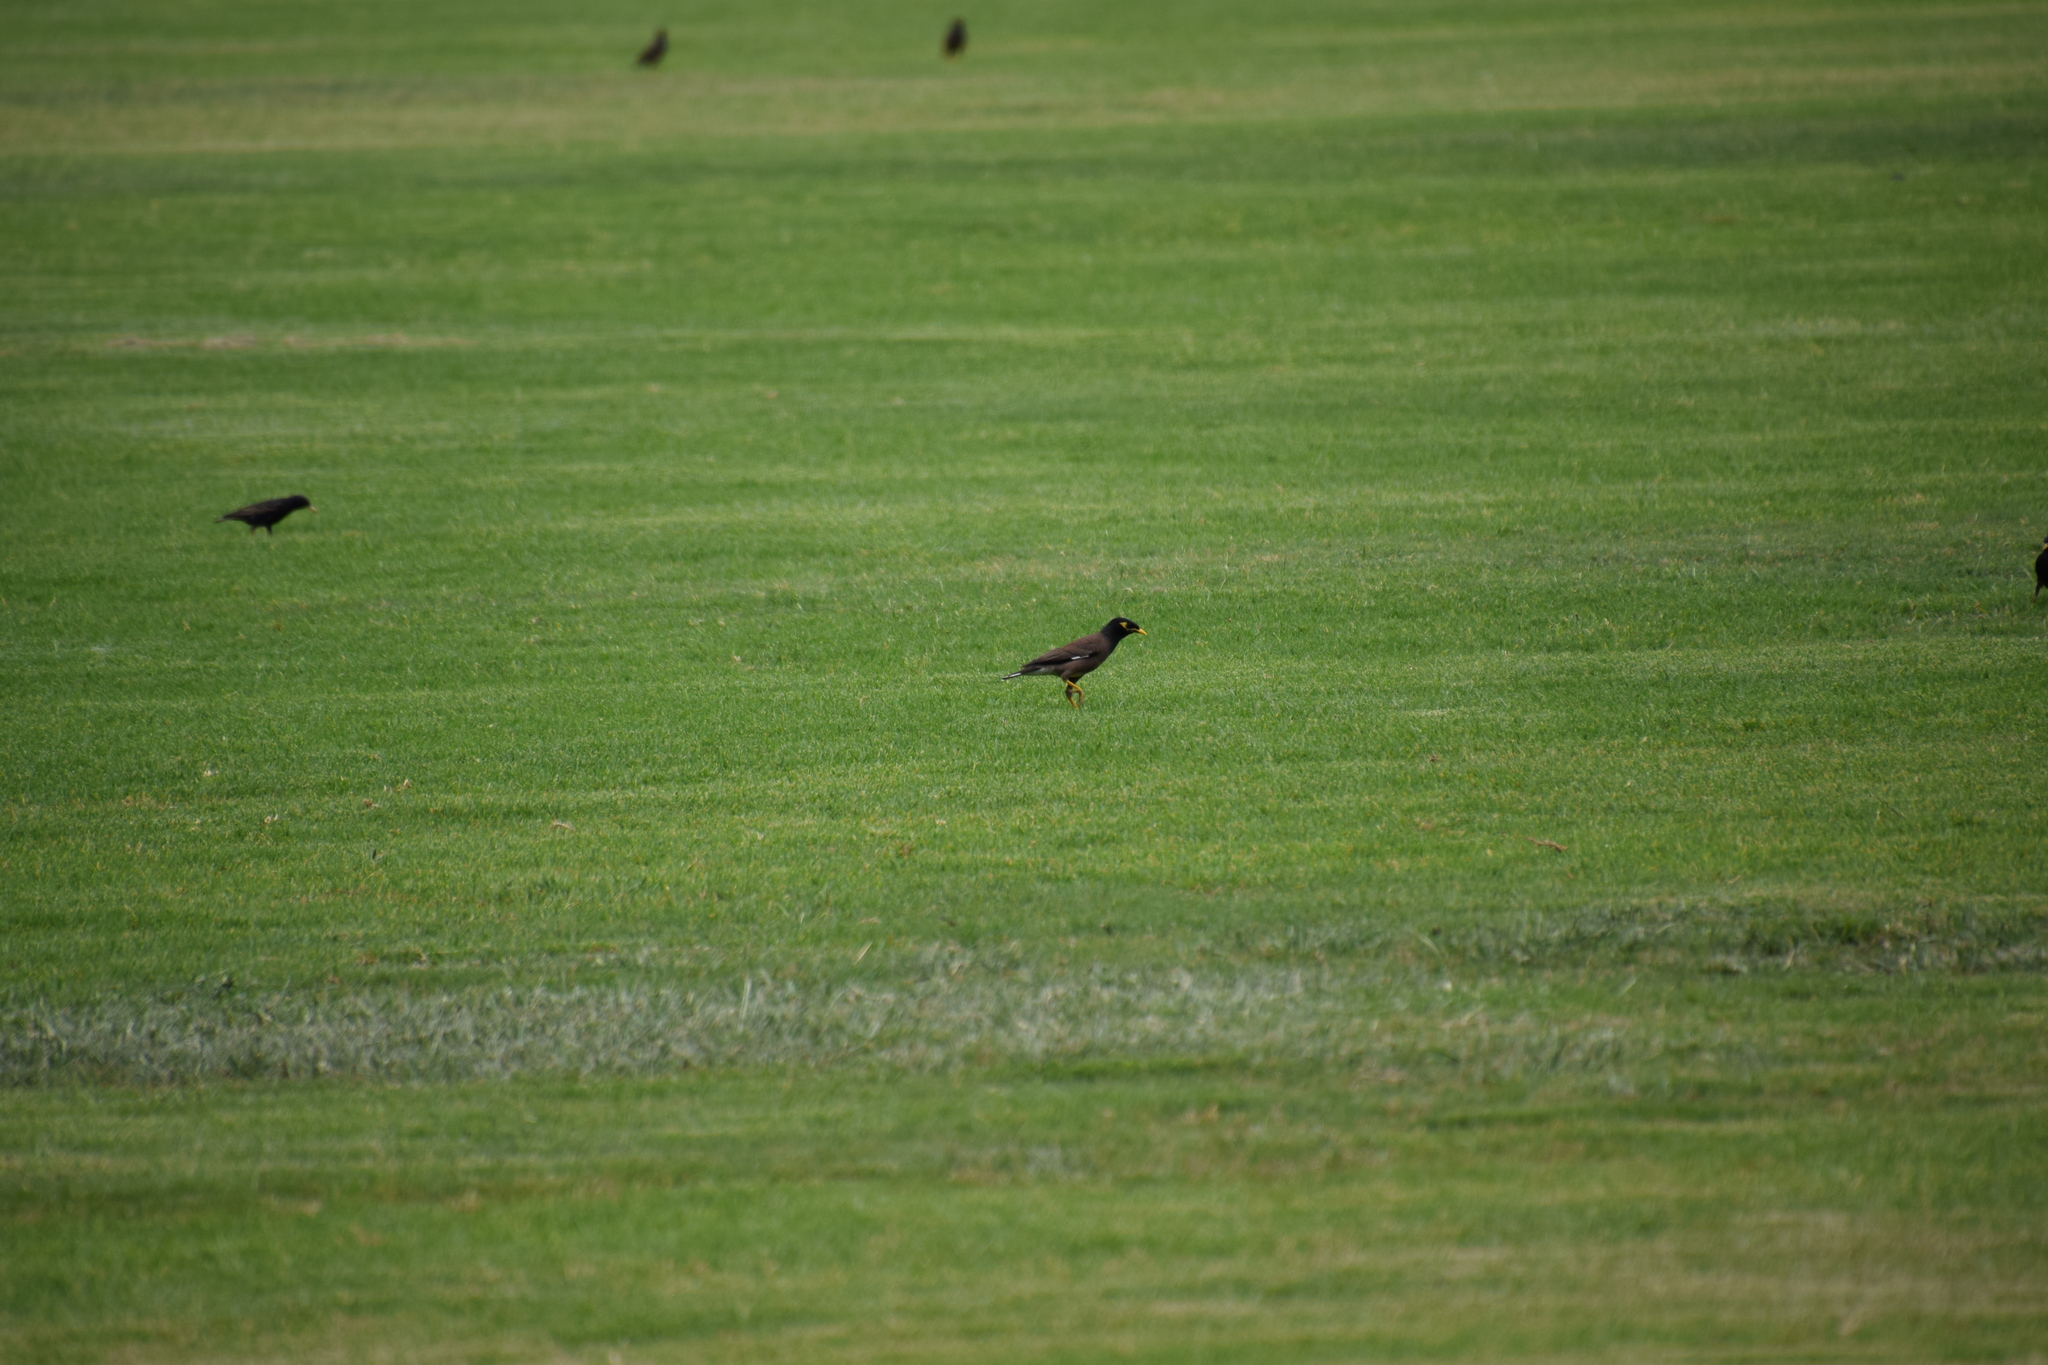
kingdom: Animalia
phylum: Chordata
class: Aves
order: Passeriformes
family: Sturnidae
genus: Acridotheres
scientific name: Acridotheres tristis
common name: Common myna
